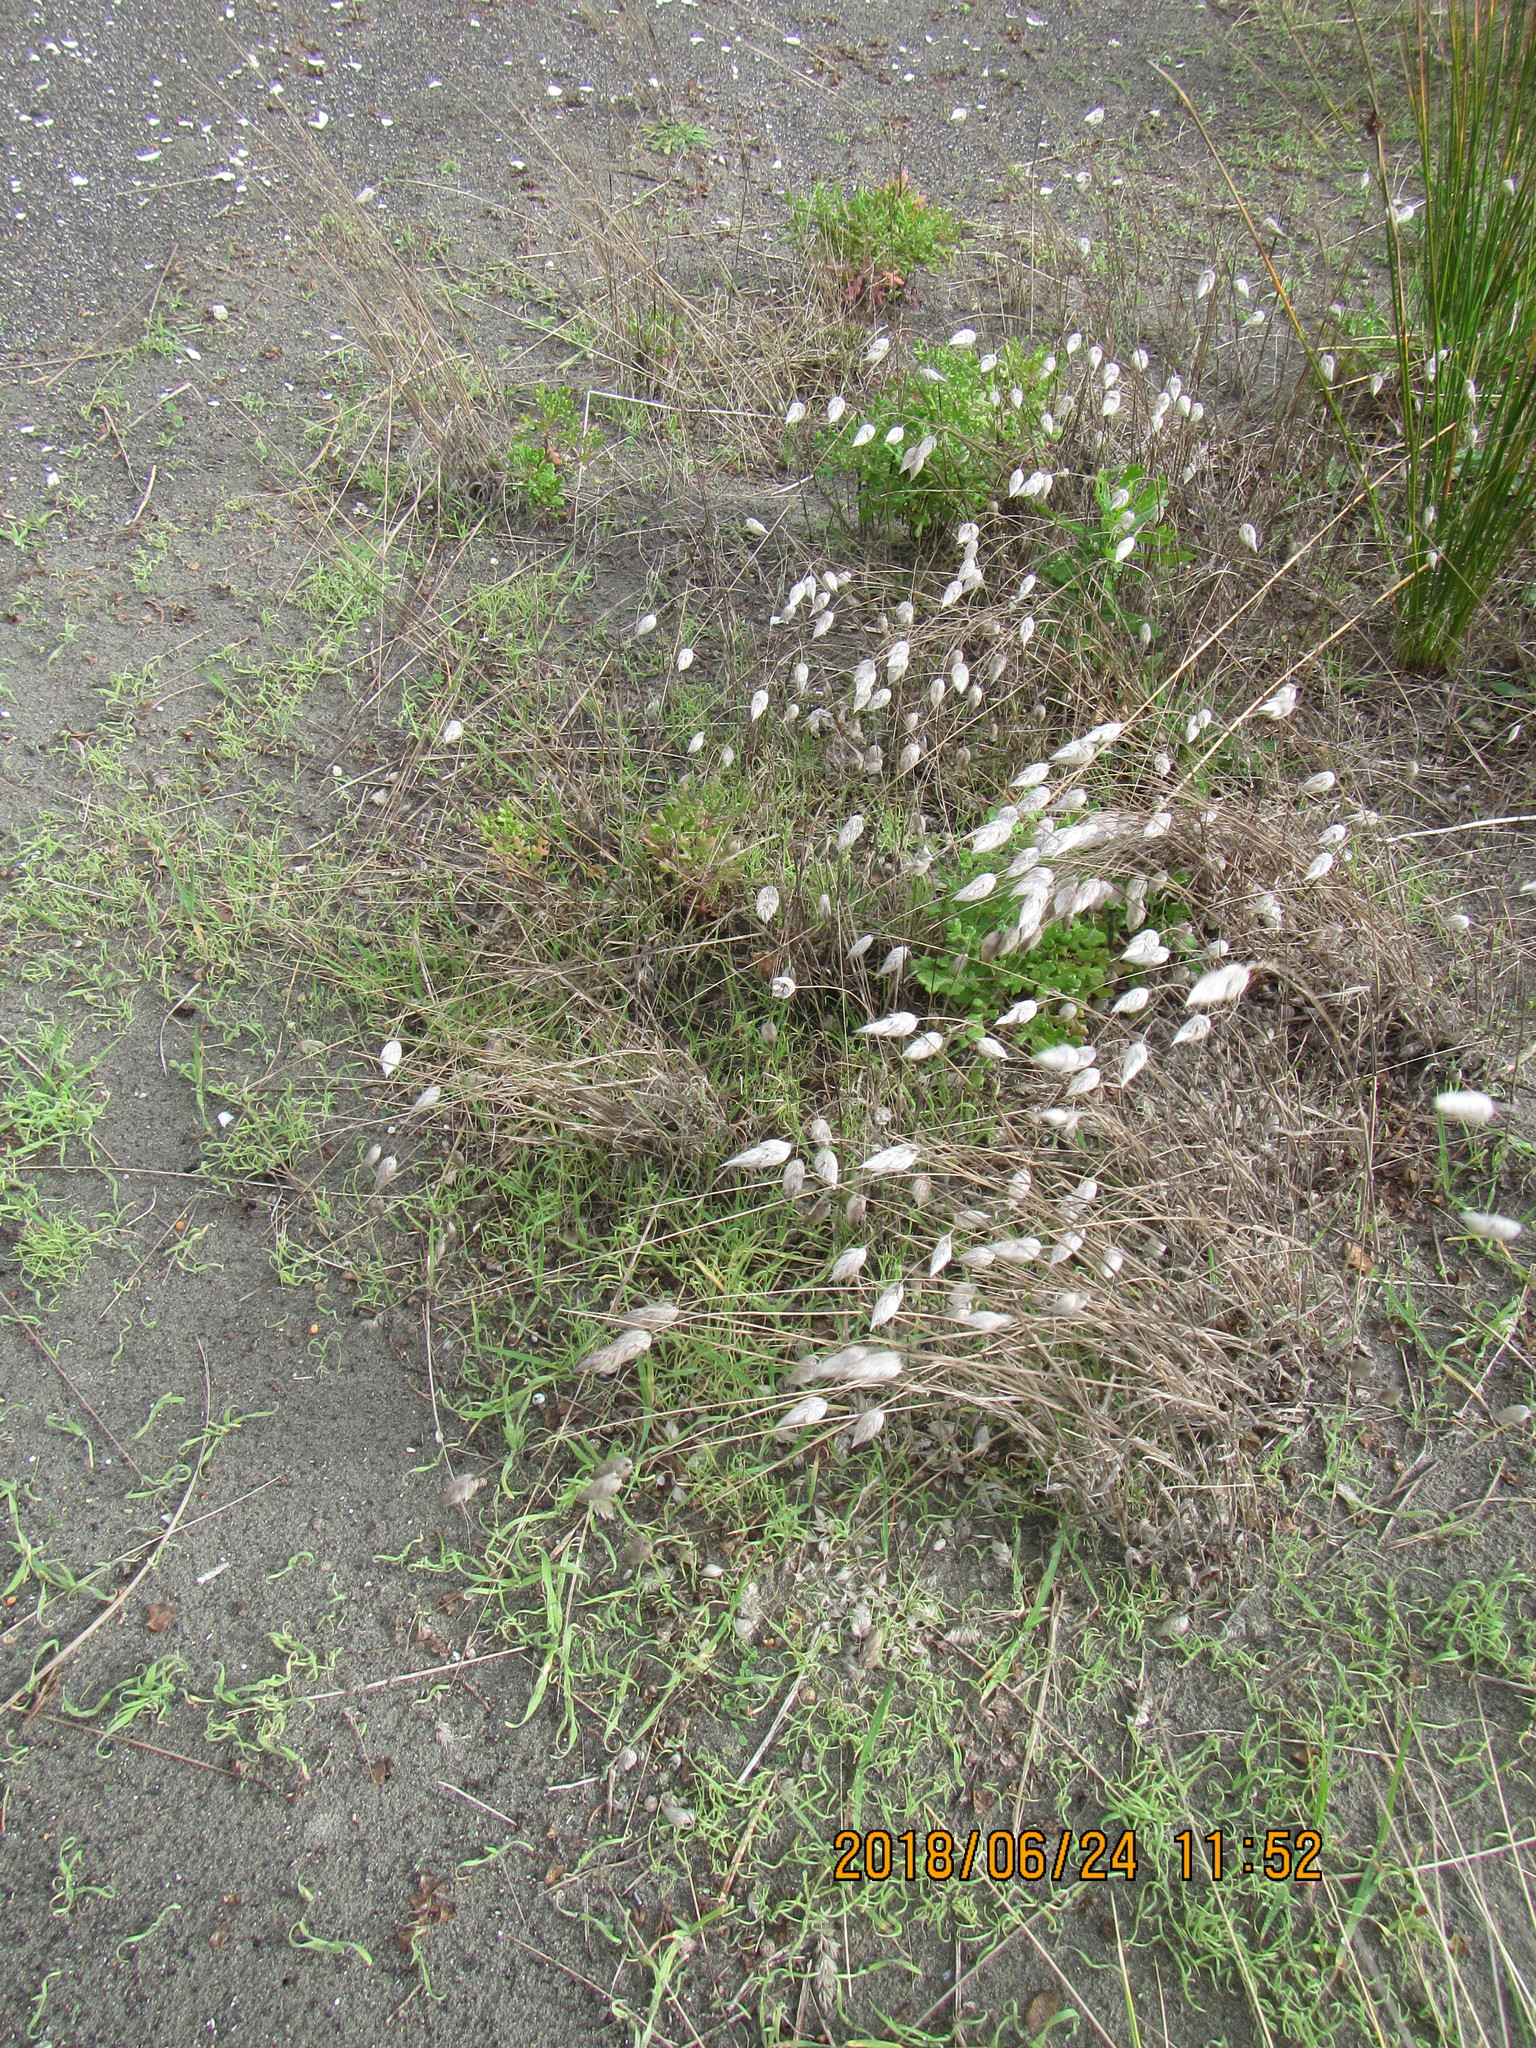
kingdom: Plantae
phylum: Tracheophyta
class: Liliopsida
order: Poales
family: Poaceae
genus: Lagurus
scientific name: Lagurus ovatus
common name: Hare's-tail
